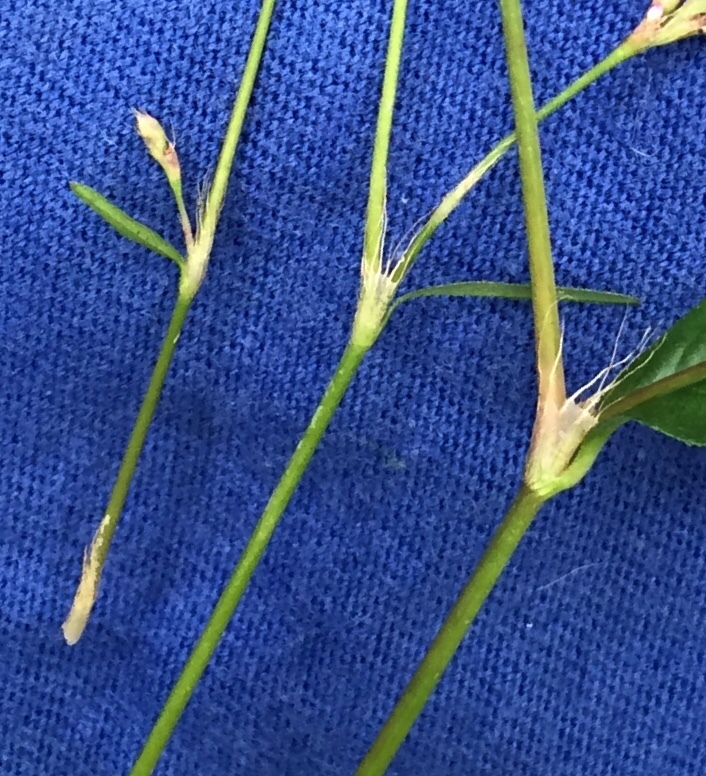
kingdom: Plantae
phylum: Tracheophyta
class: Magnoliopsida
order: Caryophyllales
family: Polygonaceae
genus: Persicaria
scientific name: Persicaria longiseta
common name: Bristly lady's-thumb
